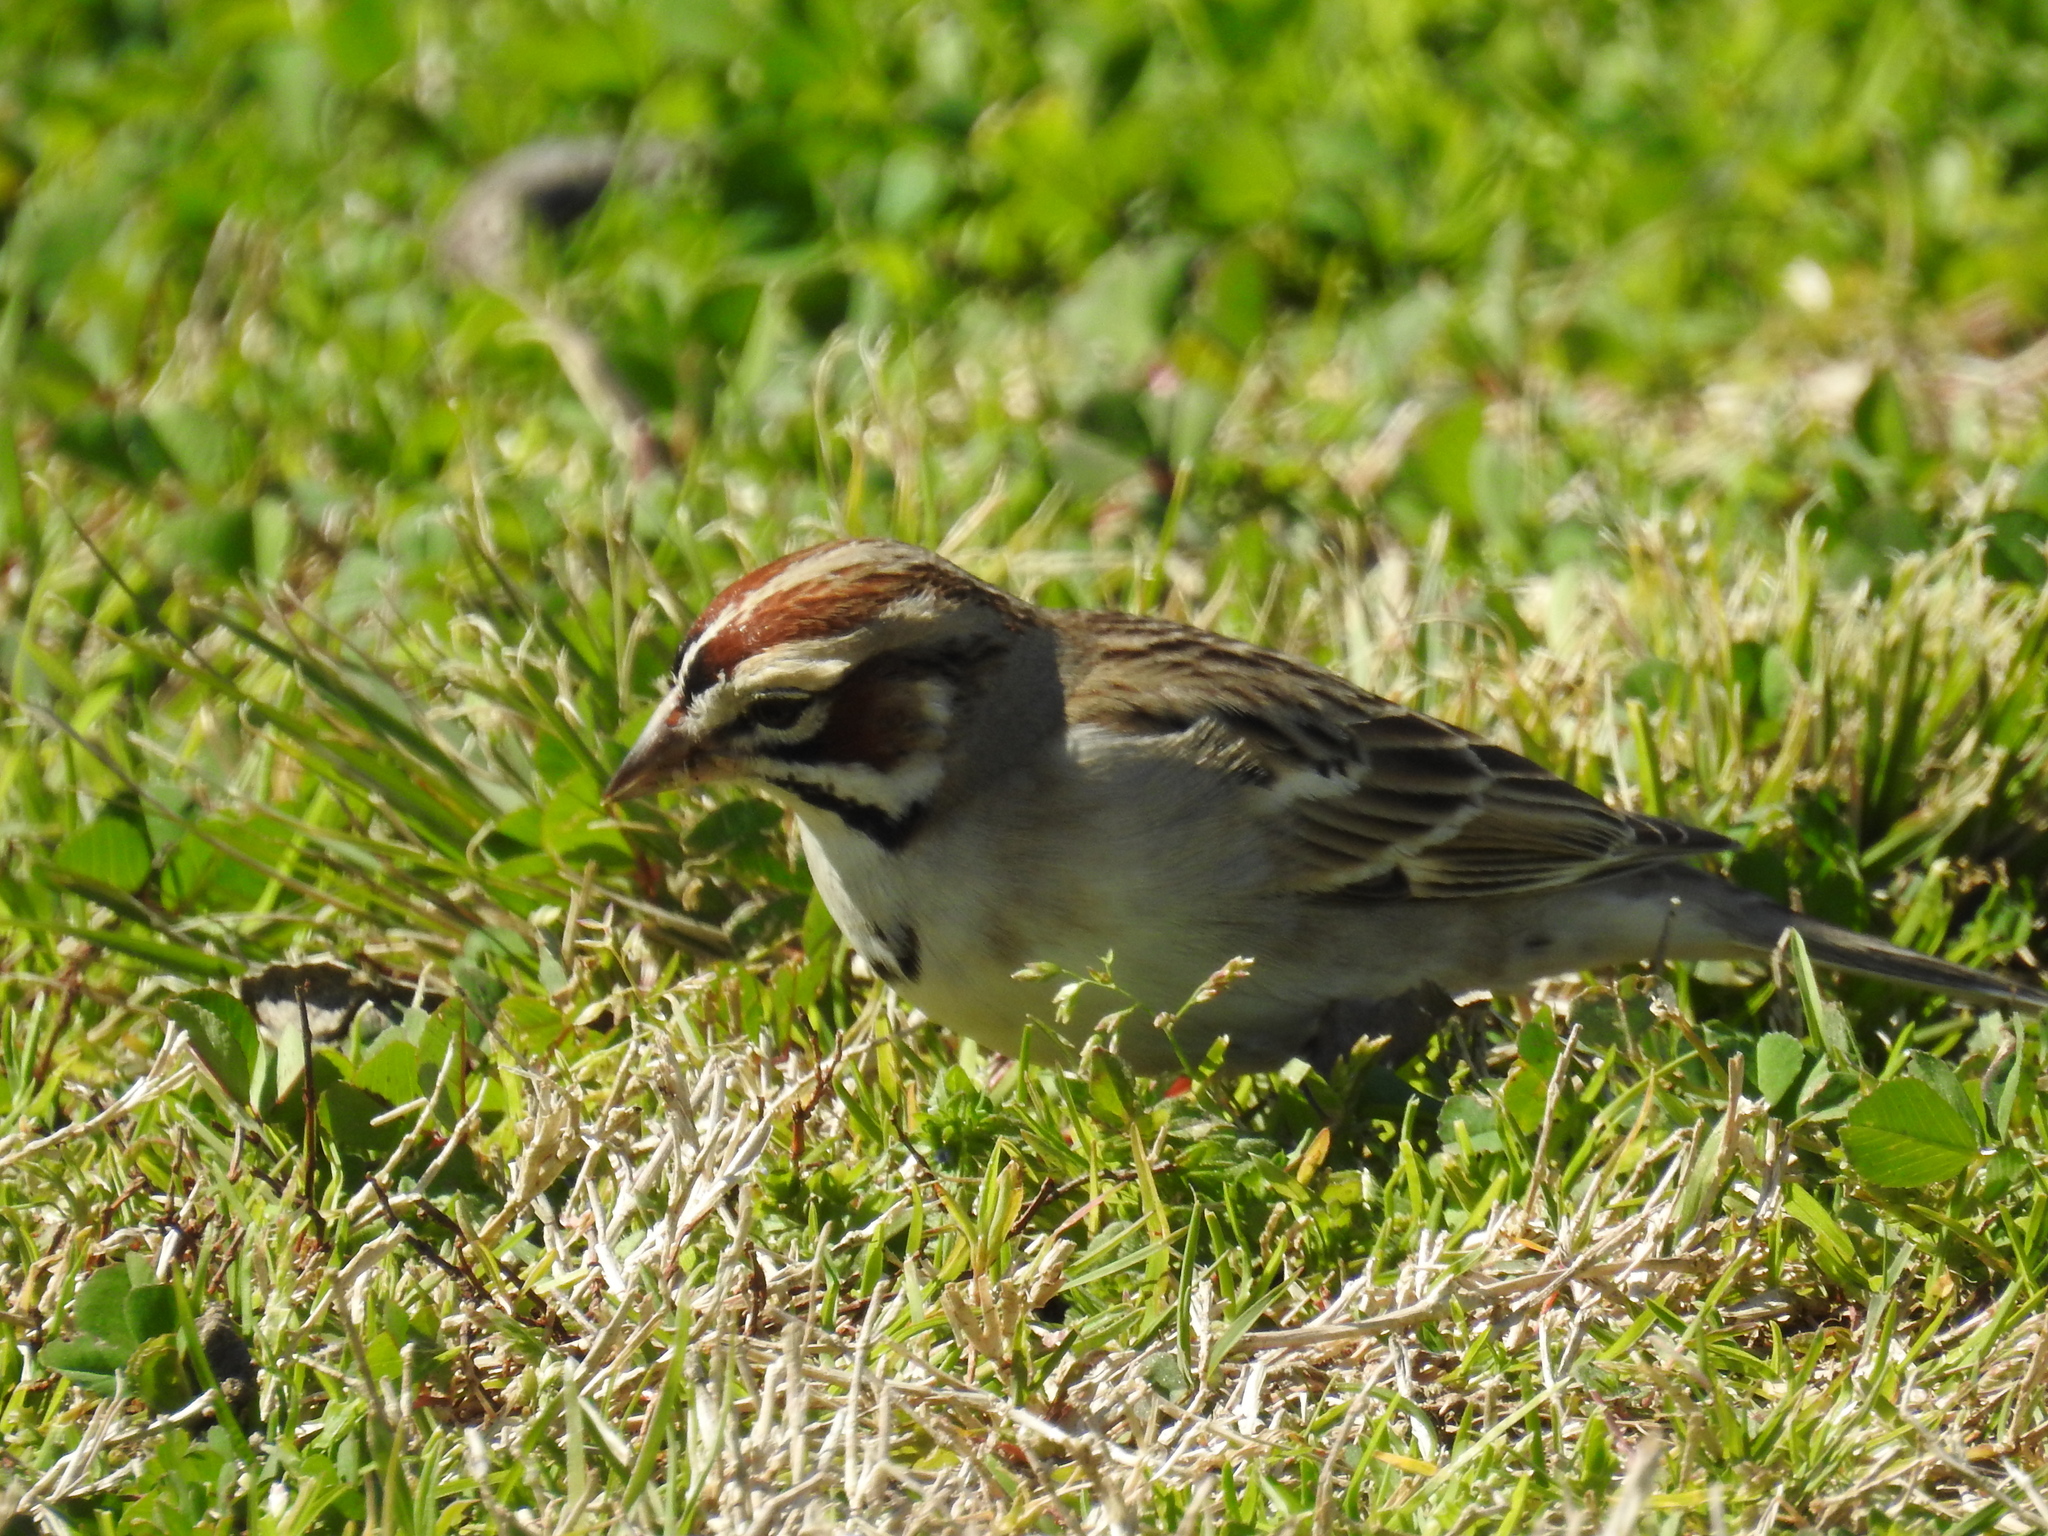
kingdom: Animalia
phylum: Chordata
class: Aves
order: Passeriformes
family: Passerellidae
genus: Chondestes
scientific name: Chondestes grammacus
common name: Lark sparrow
